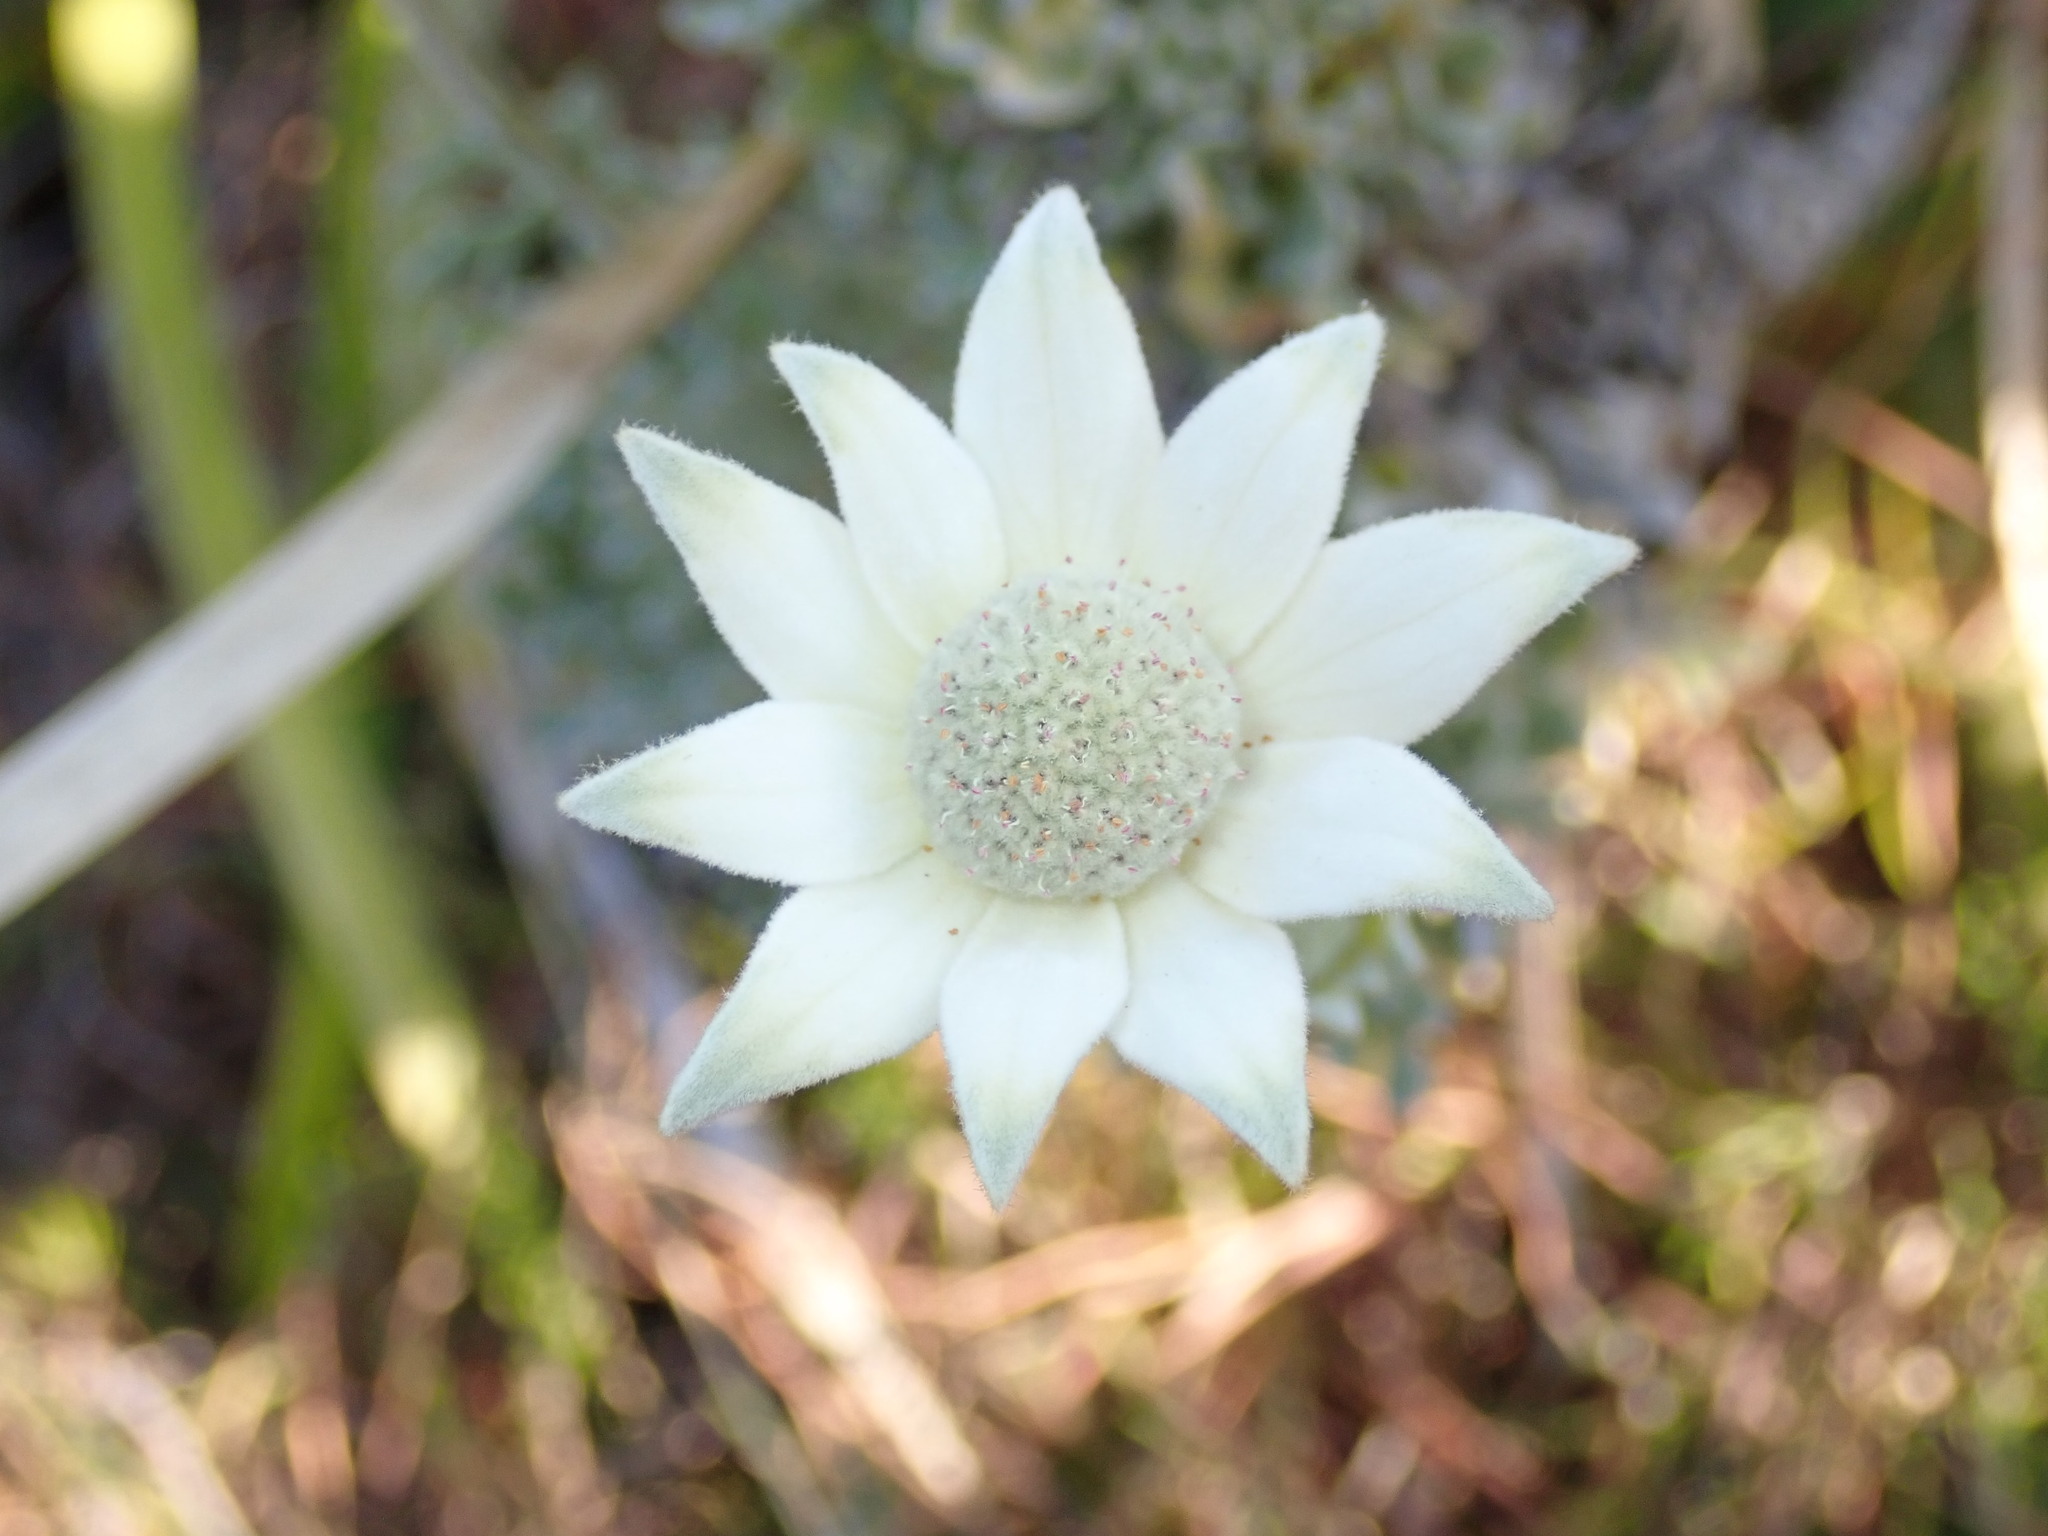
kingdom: Plantae
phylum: Tracheophyta
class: Magnoliopsida
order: Apiales
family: Apiaceae
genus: Actinotus
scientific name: Actinotus helianthi
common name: Flannel-flower
